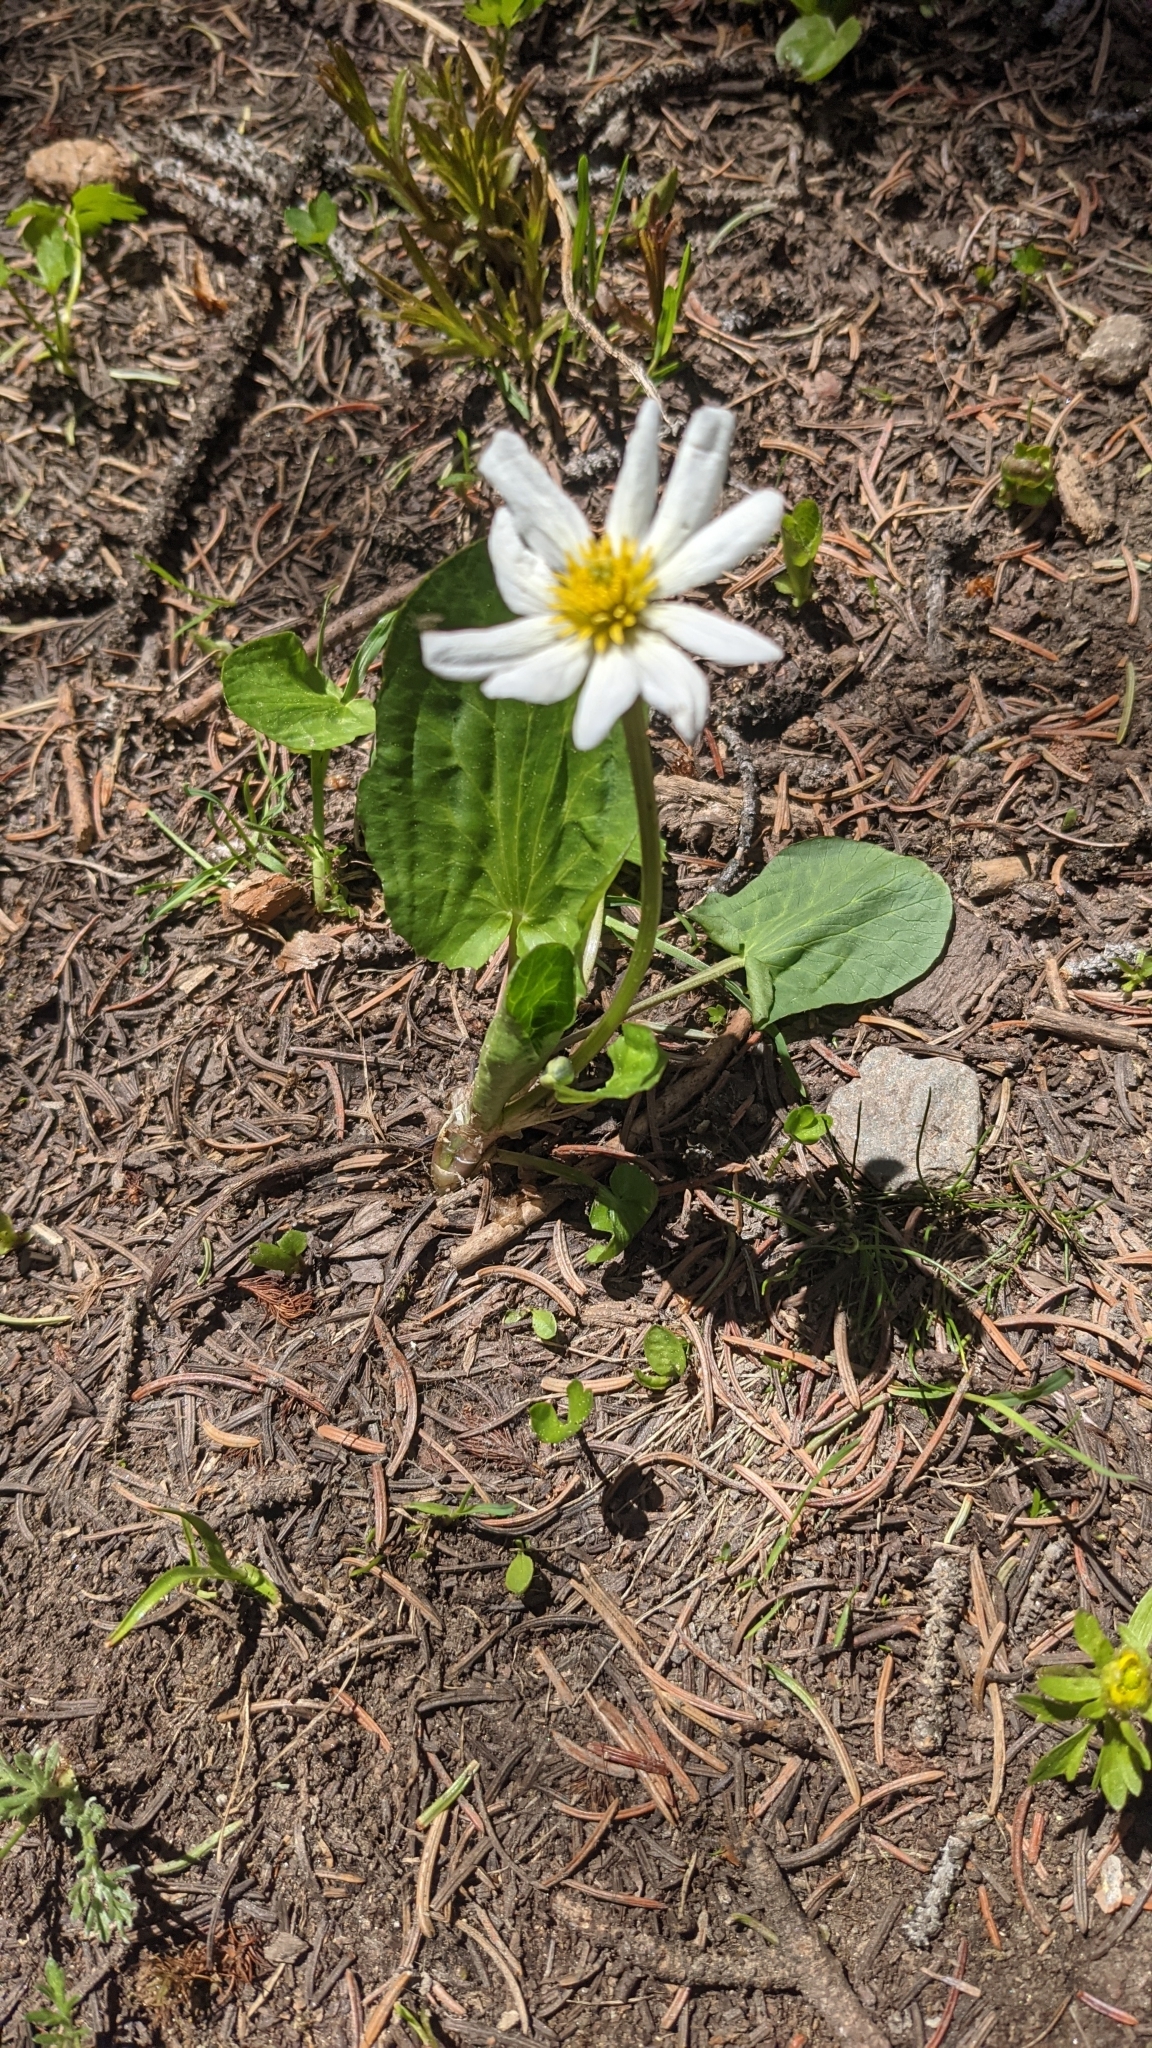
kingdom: Plantae
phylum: Tracheophyta
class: Magnoliopsida
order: Ranunculales
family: Ranunculaceae
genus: Caltha
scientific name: Caltha leptosepala
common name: Elkslip
